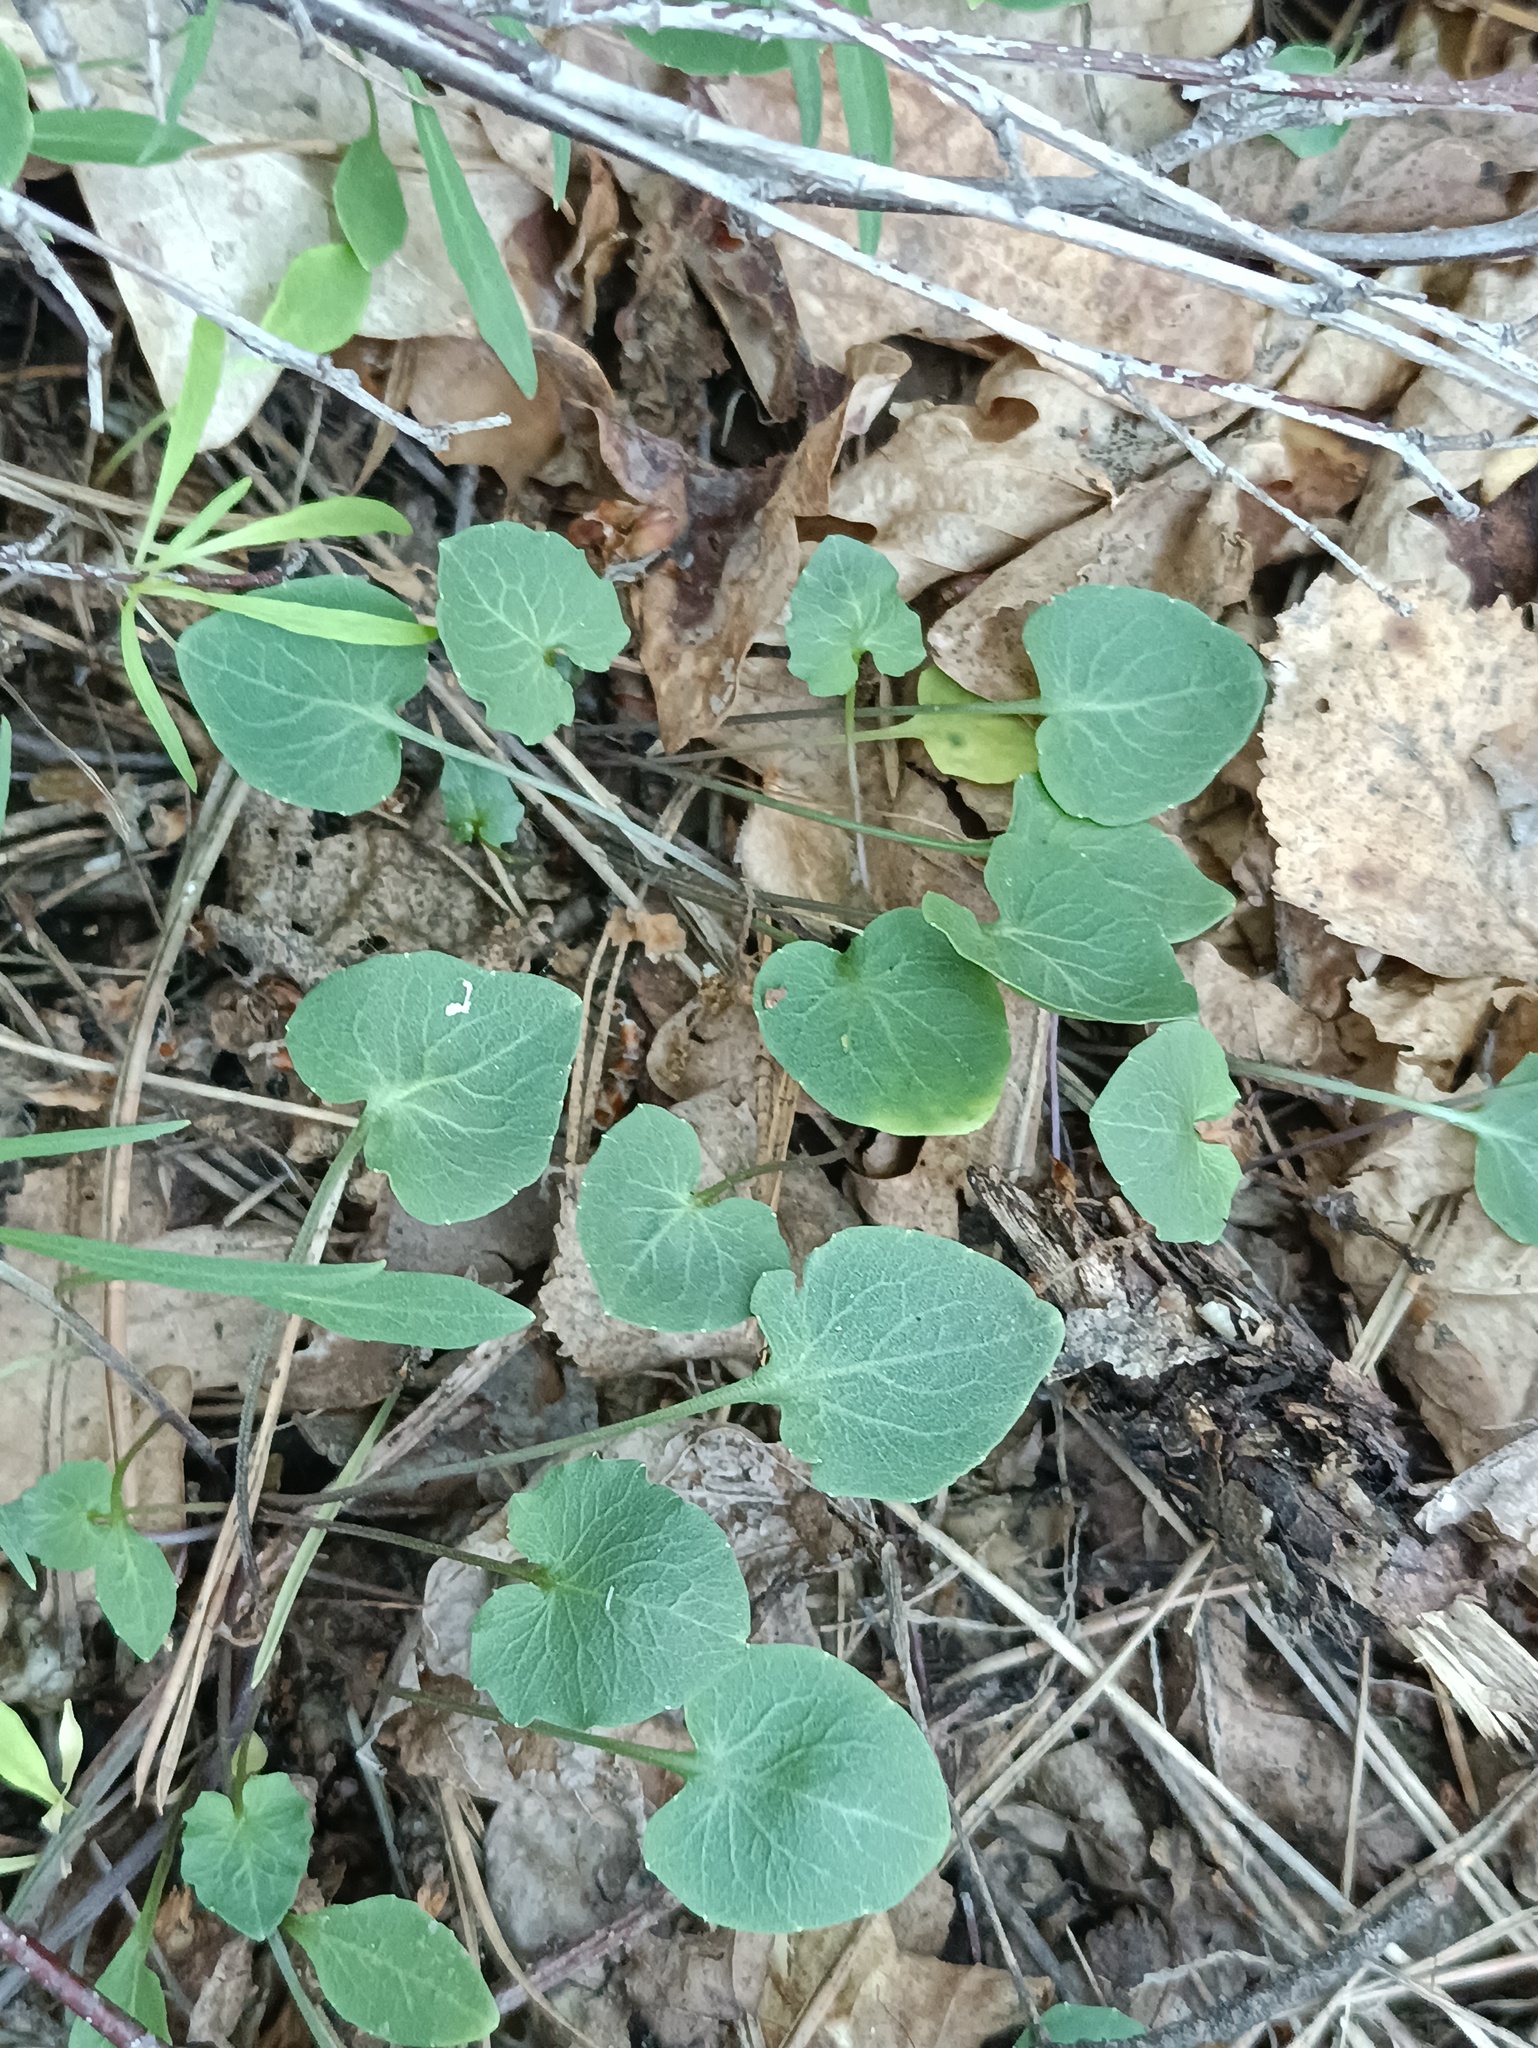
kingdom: Plantae
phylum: Tracheophyta
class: Magnoliopsida
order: Asterales
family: Campanulaceae
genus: Campanula
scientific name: Campanula rotundifolia
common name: Harebell
